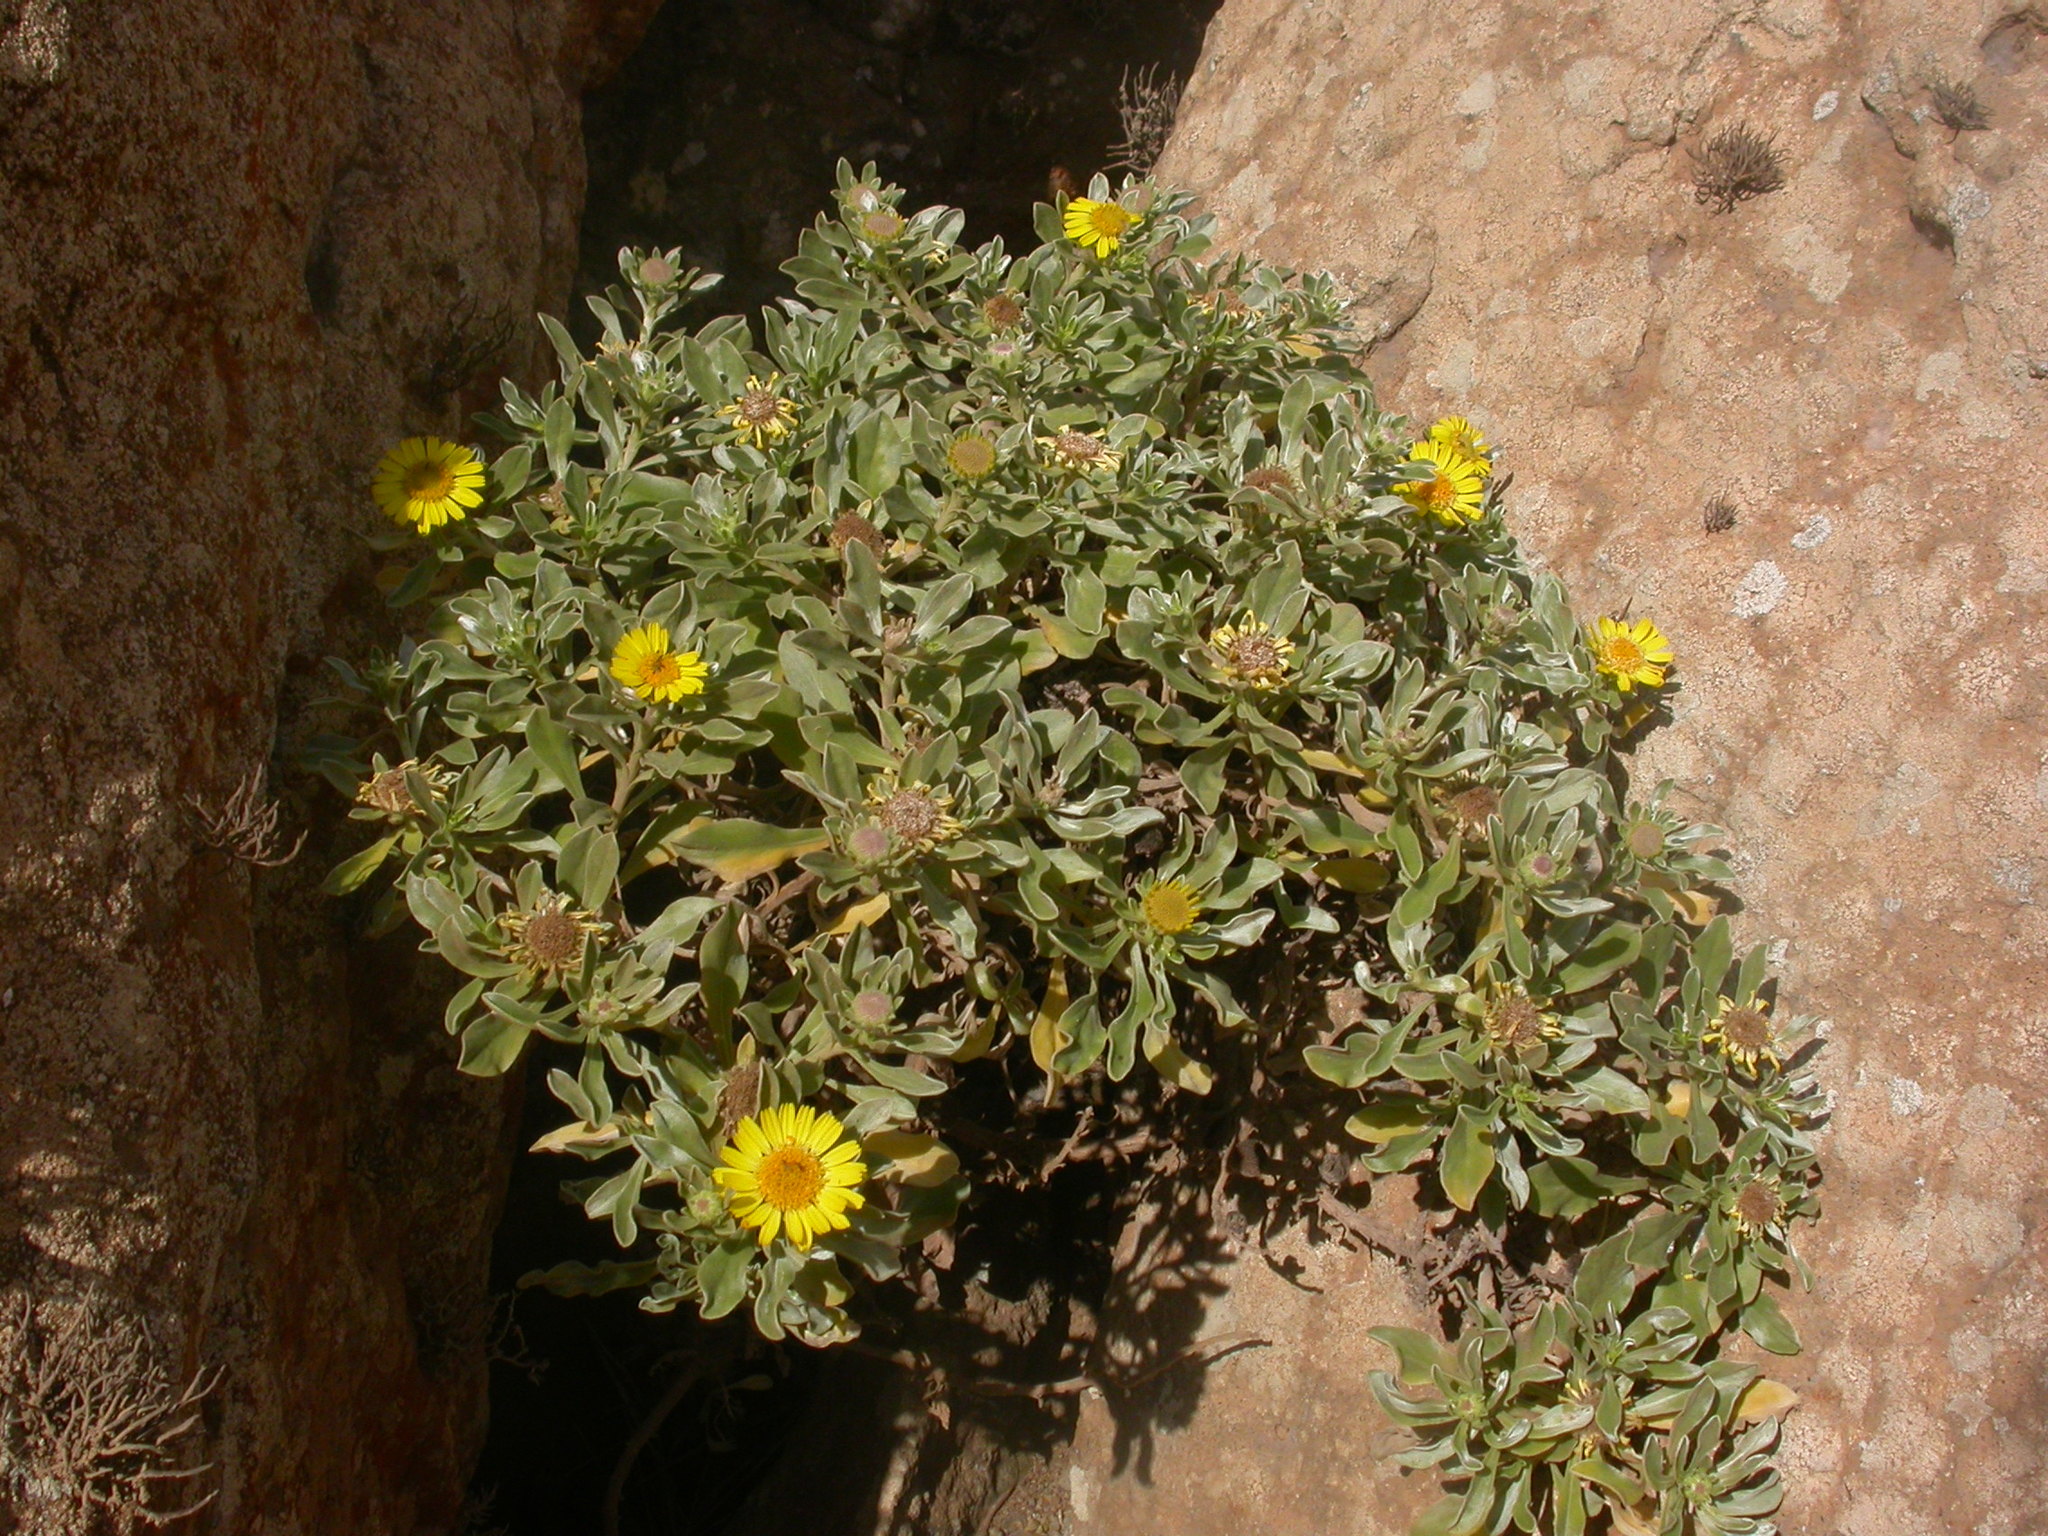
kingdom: Plantae
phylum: Tracheophyta
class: Magnoliopsida
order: Asterales
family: Asteraceae
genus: Asteriscus
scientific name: Asteriscus daltonii
